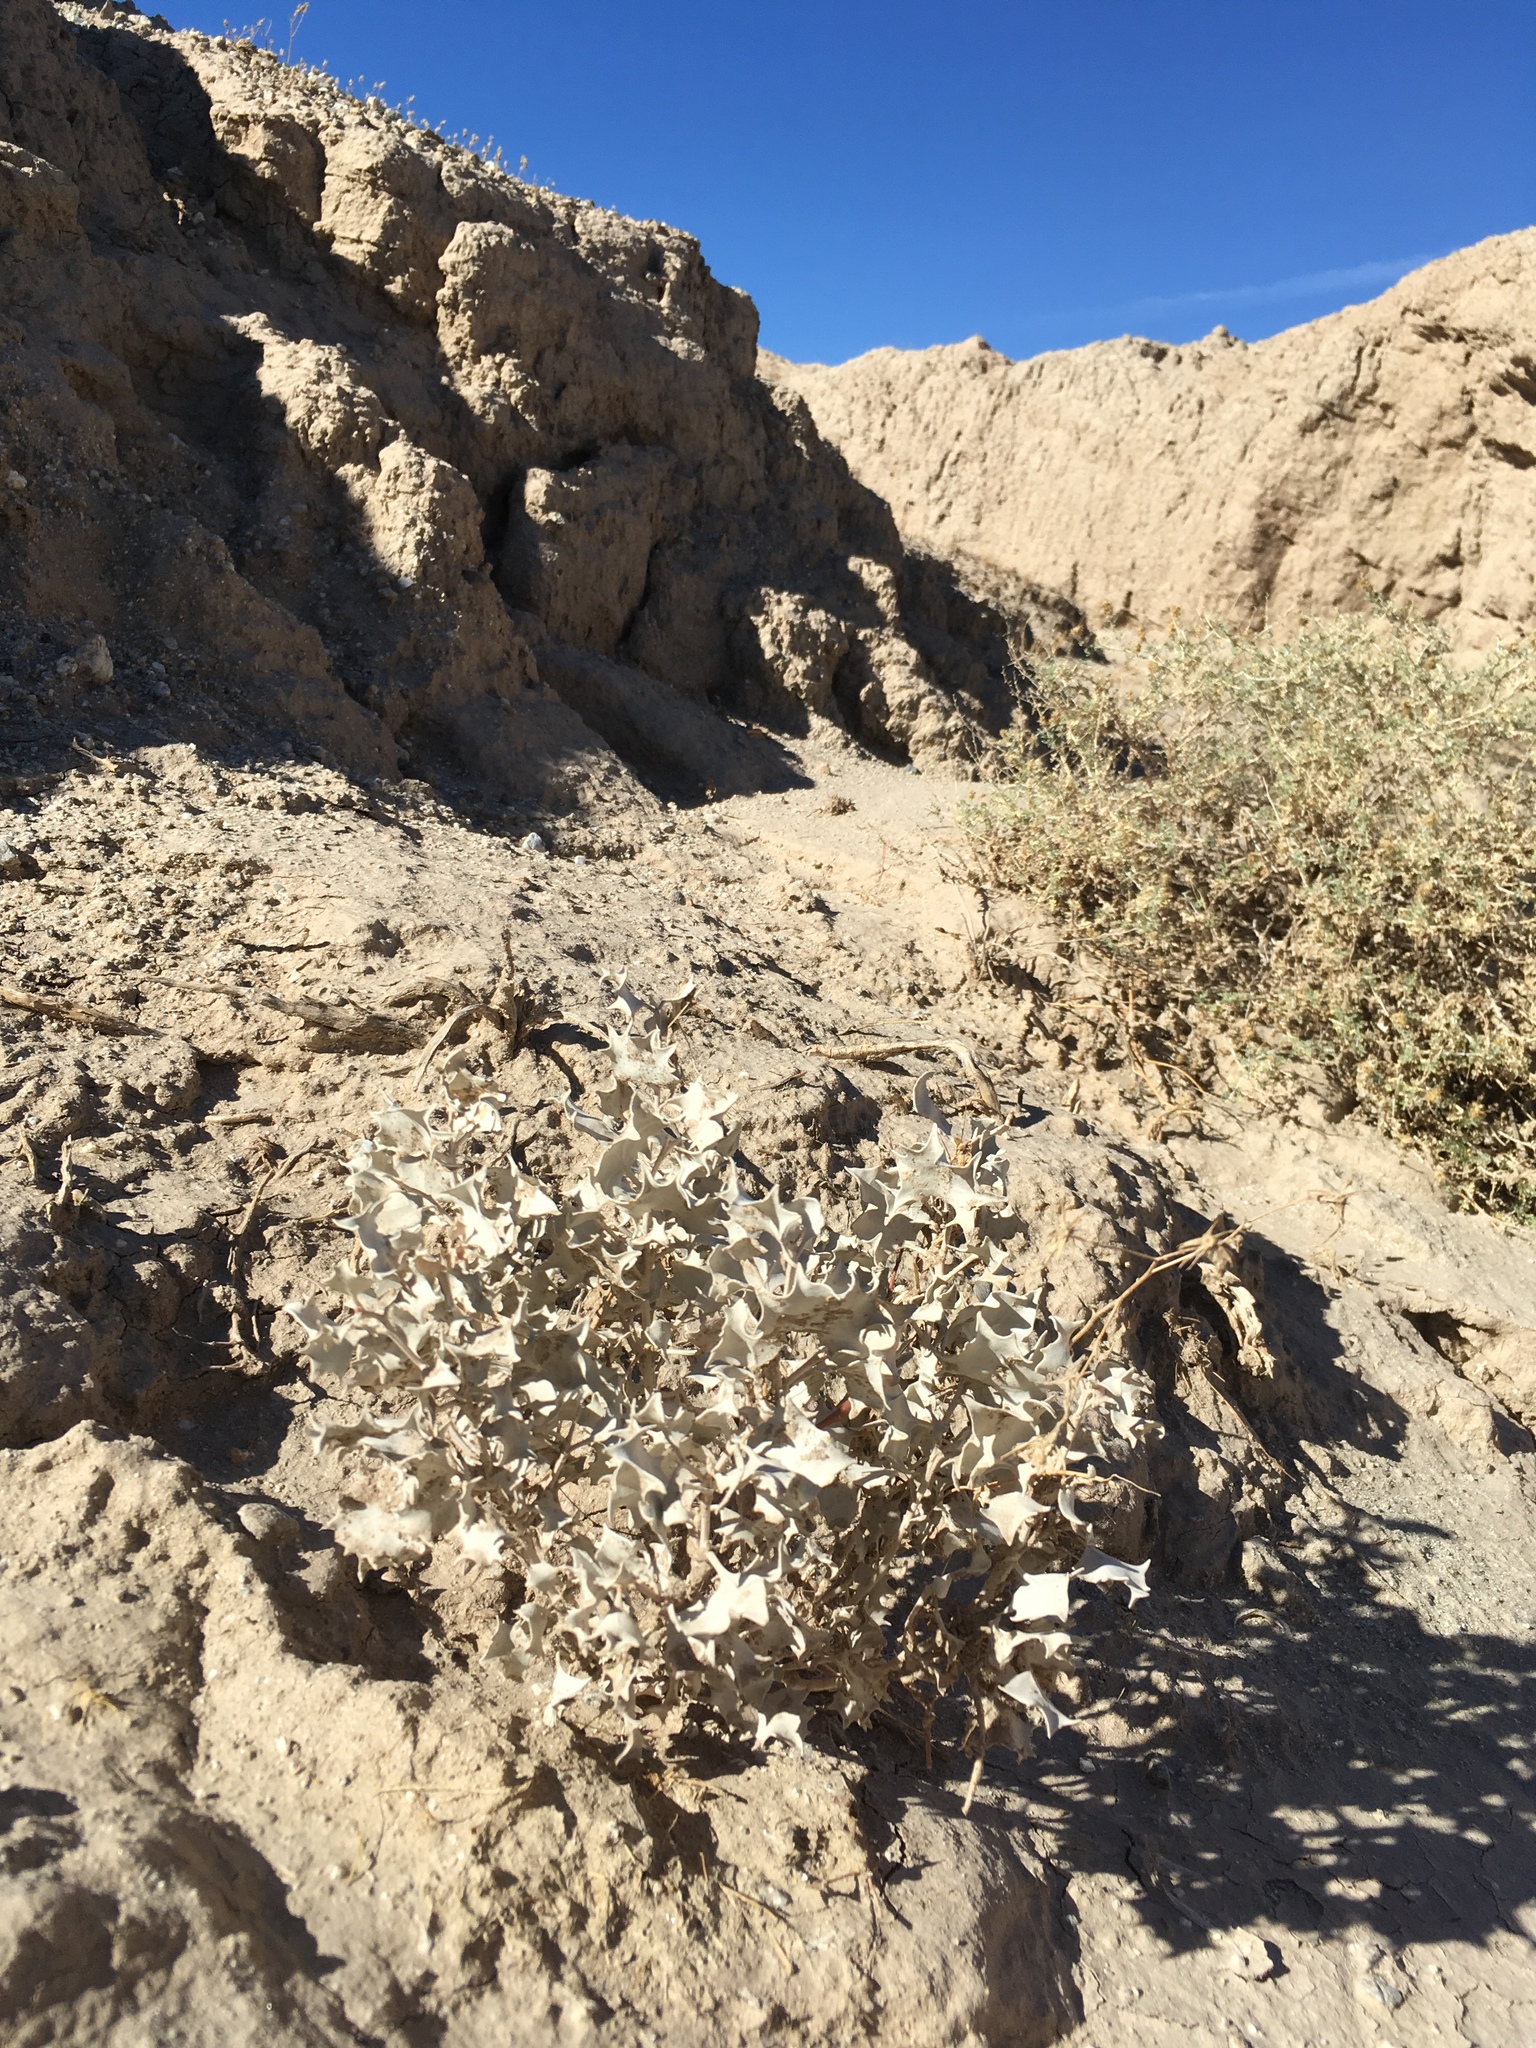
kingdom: Plantae
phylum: Tracheophyta
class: Magnoliopsida
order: Caryophyllales
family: Amaranthaceae
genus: Atriplex
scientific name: Atriplex hymenelytra
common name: Desert-holly
